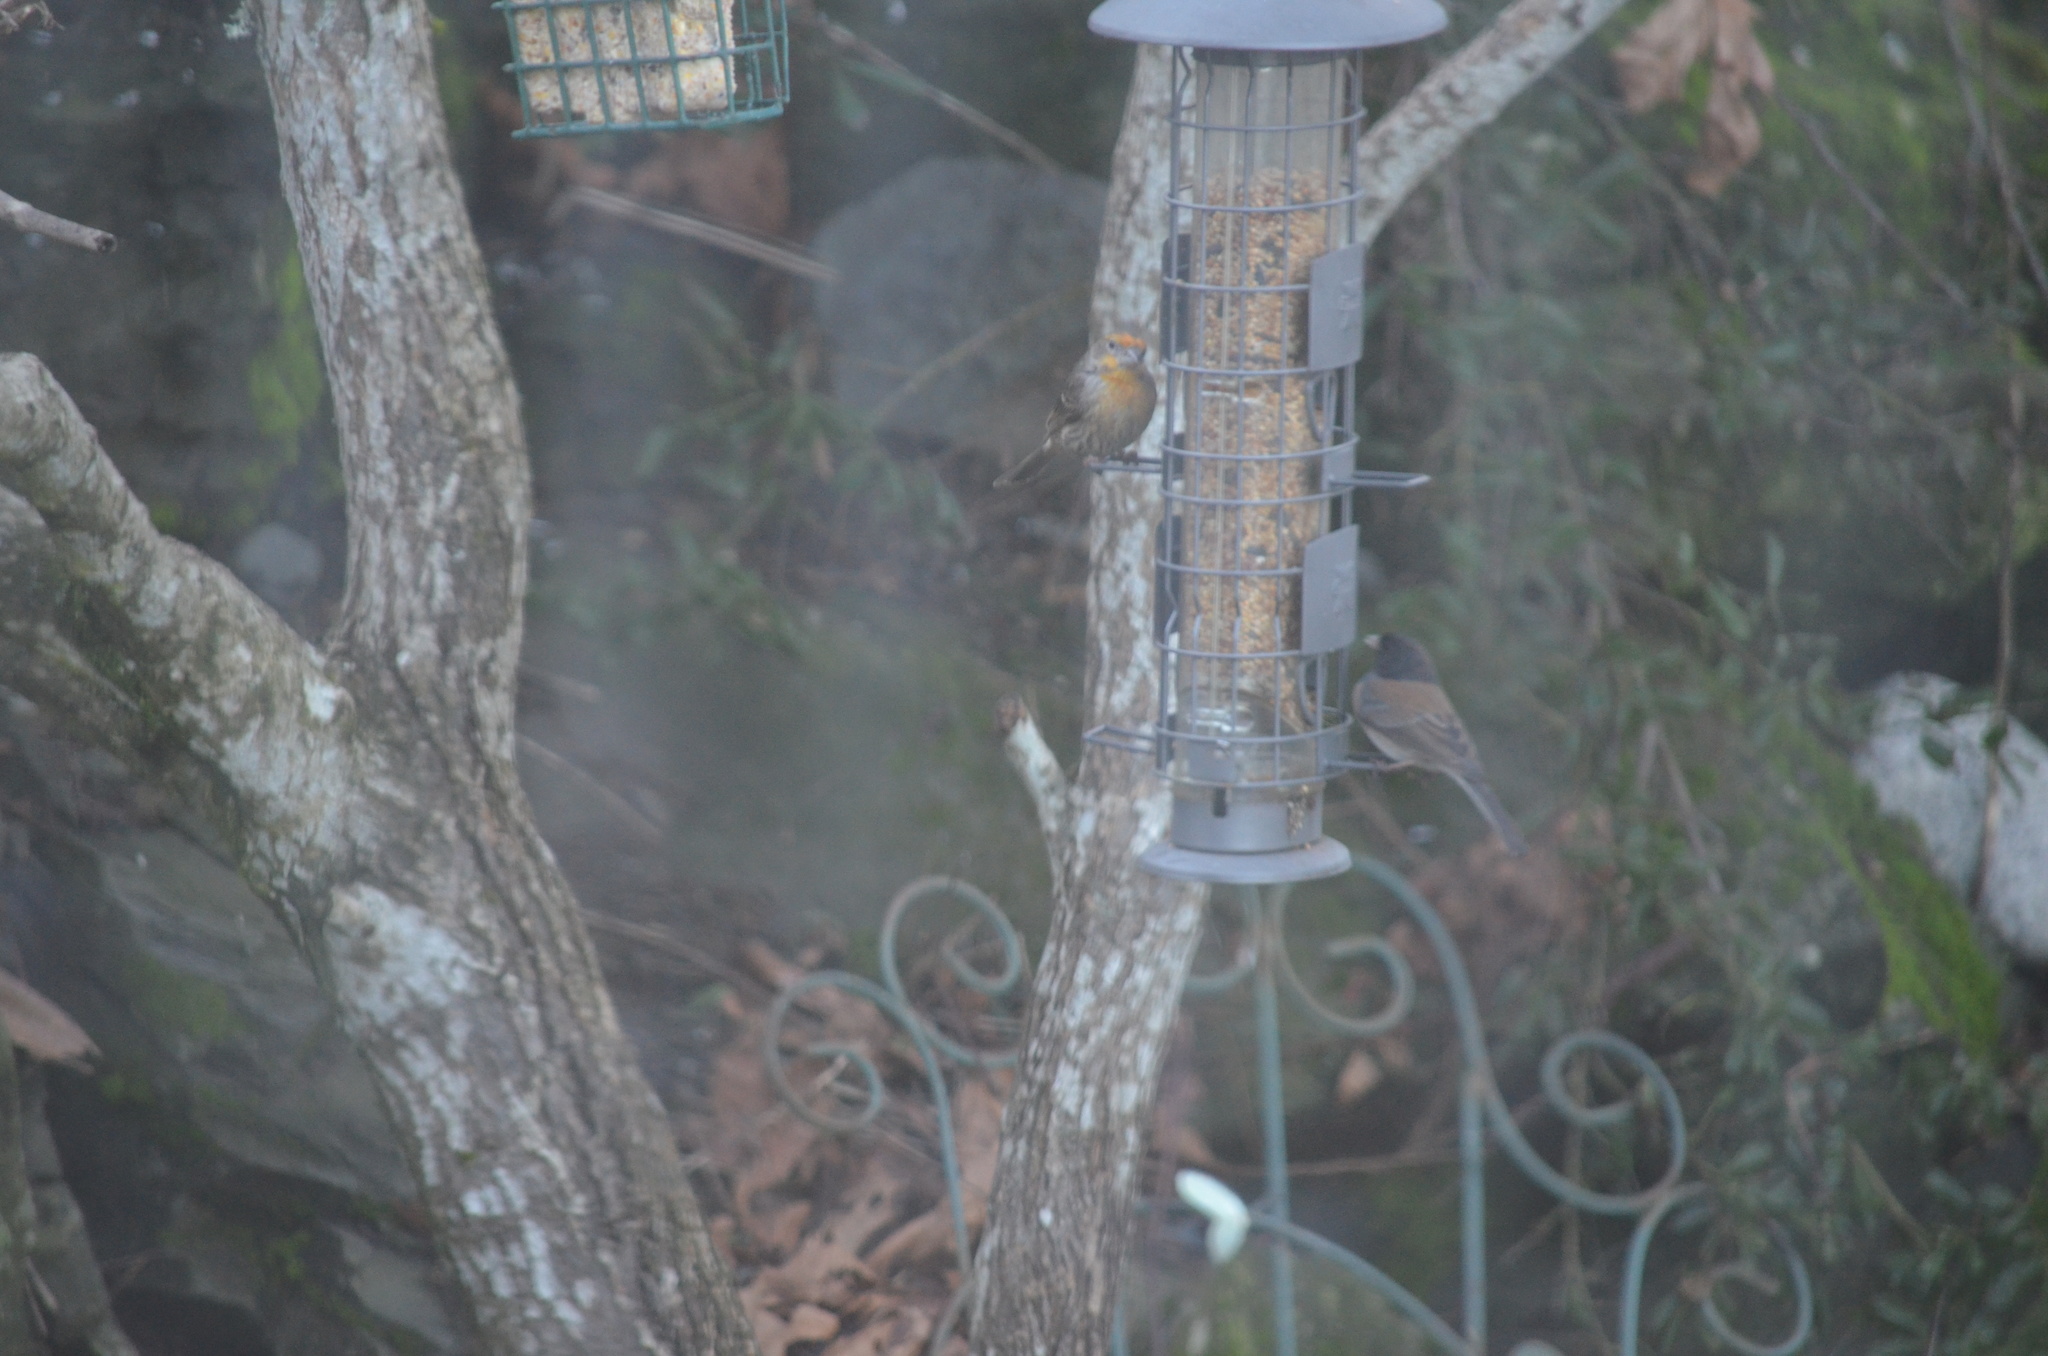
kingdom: Animalia
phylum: Chordata
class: Aves
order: Passeriformes
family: Fringillidae
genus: Haemorhous
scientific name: Haemorhous mexicanus
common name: House finch
